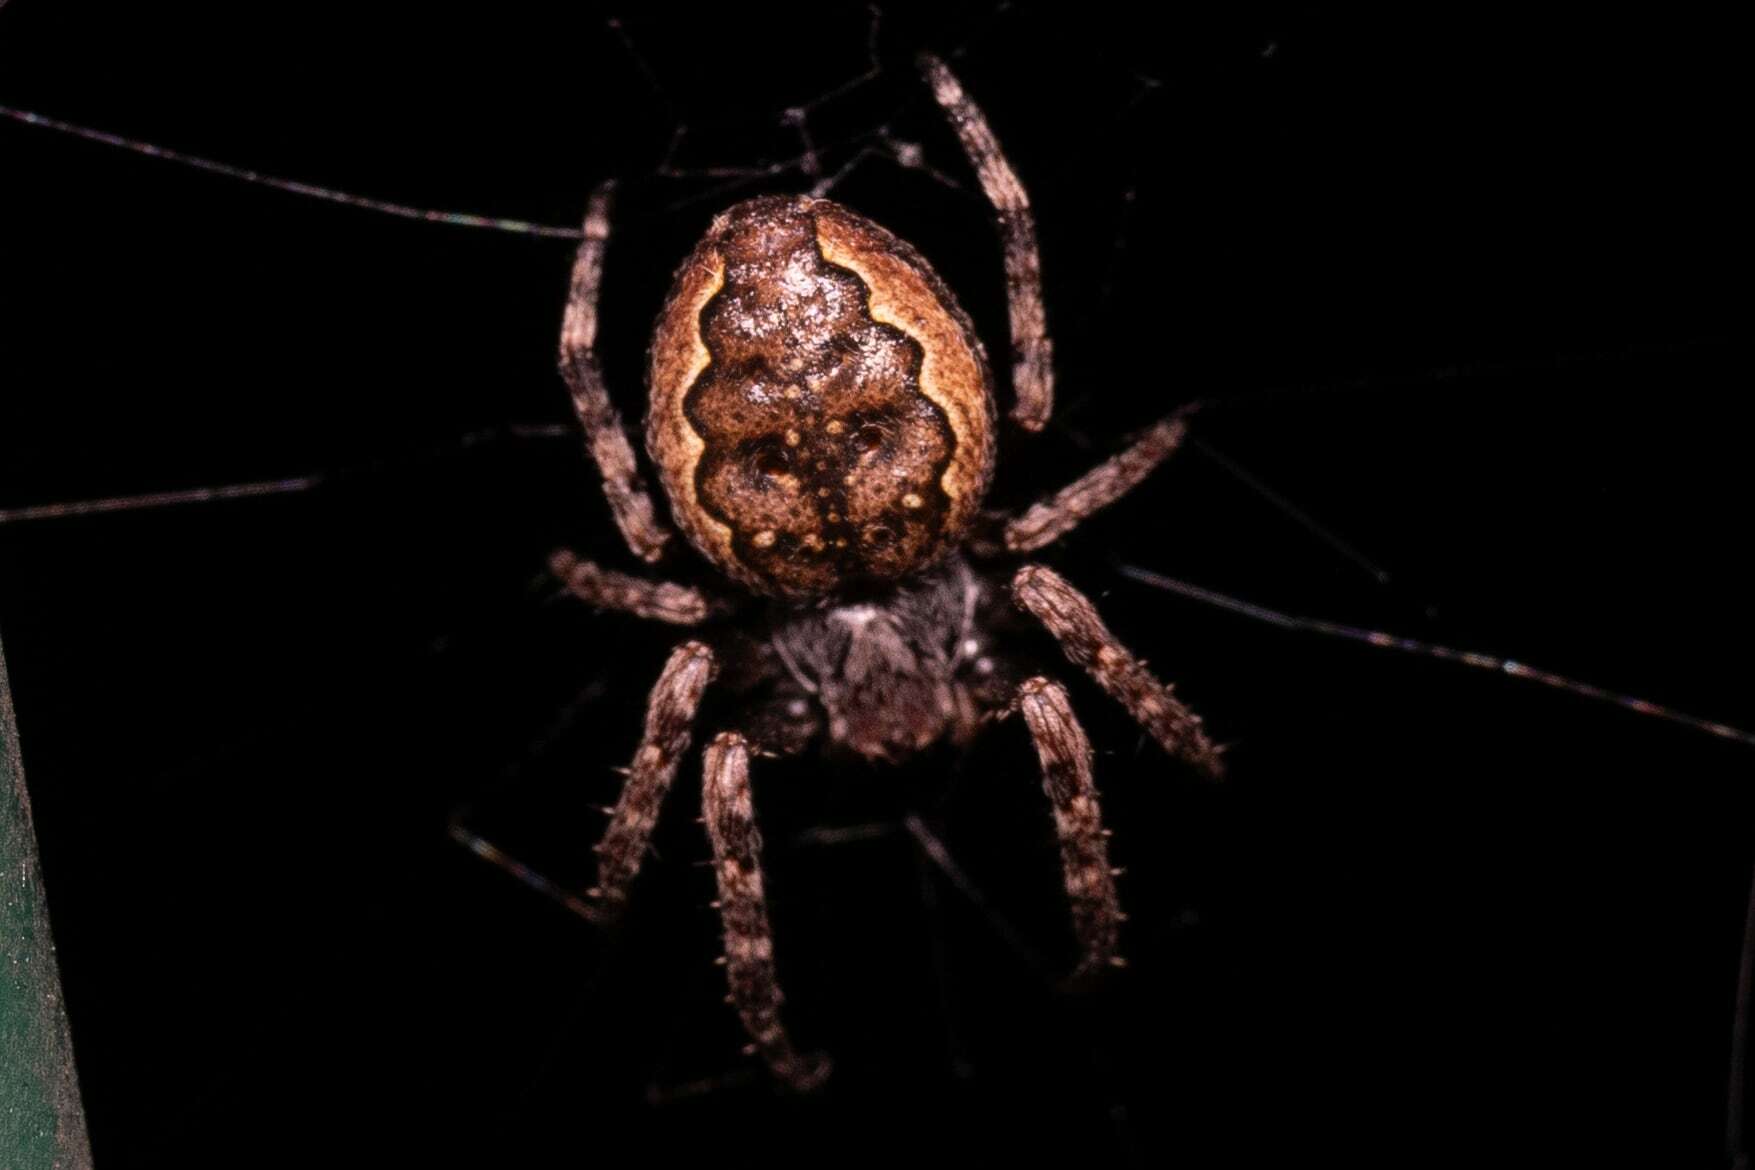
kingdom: Animalia
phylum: Arthropoda
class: Arachnida
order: Araneae
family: Araneidae
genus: Nuctenea
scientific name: Nuctenea umbratica
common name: Toad spider
